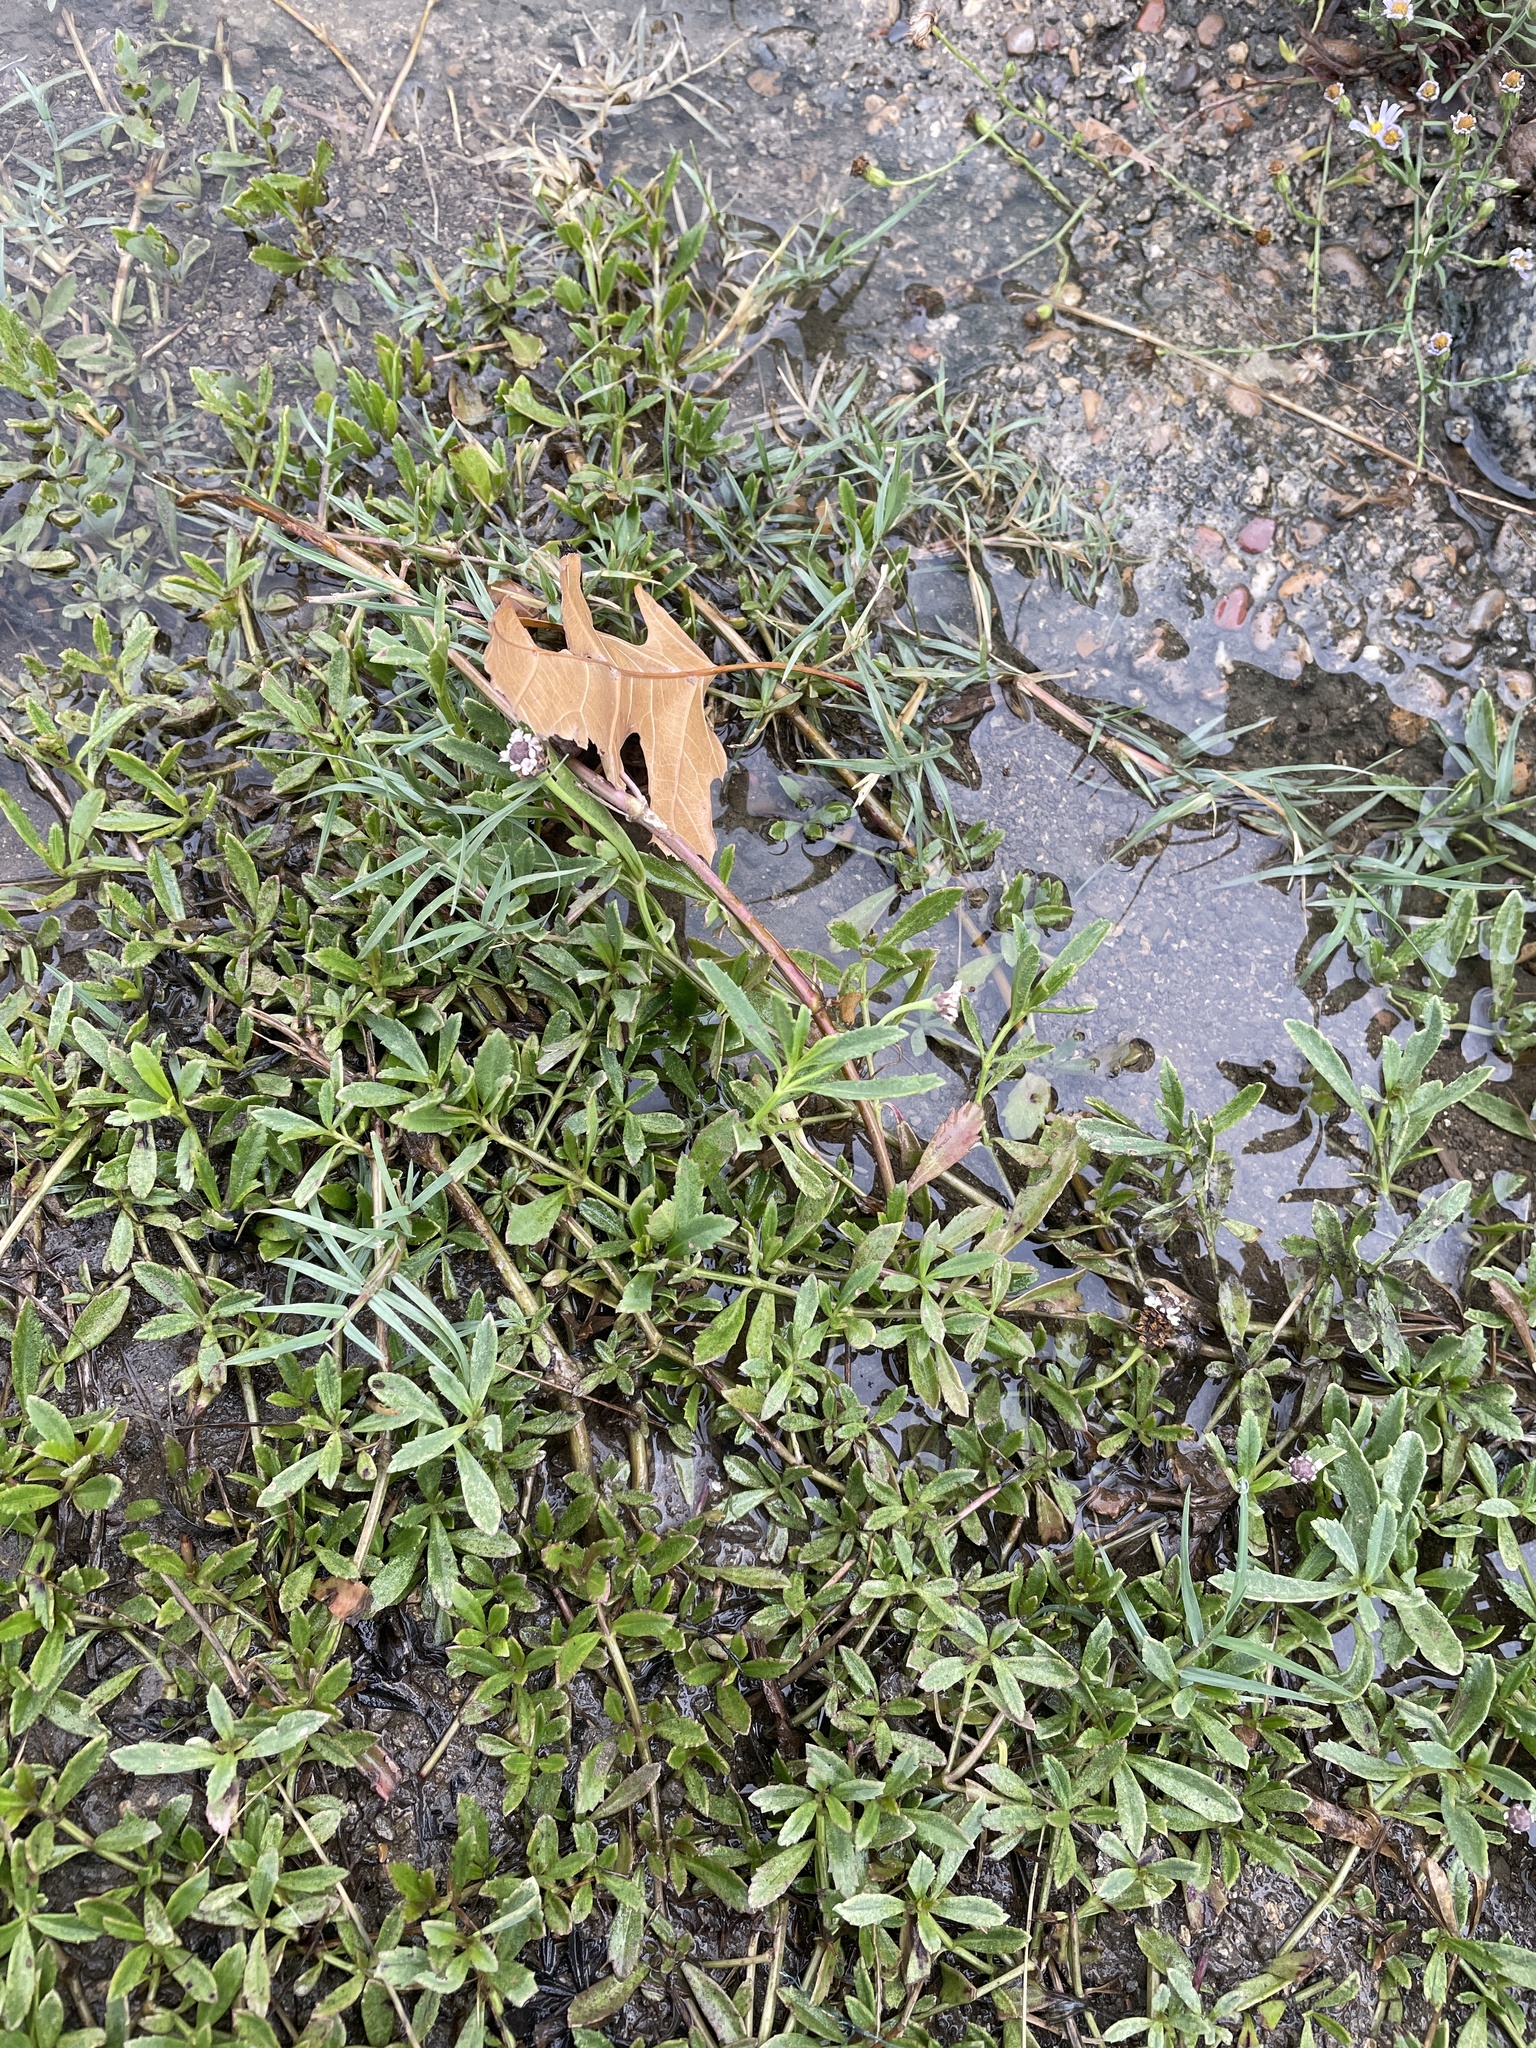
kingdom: Plantae
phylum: Tracheophyta
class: Magnoliopsida
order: Lamiales
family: Verbenaceae
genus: Phyla
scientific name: Phyla nodiflora
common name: Frogfruit
